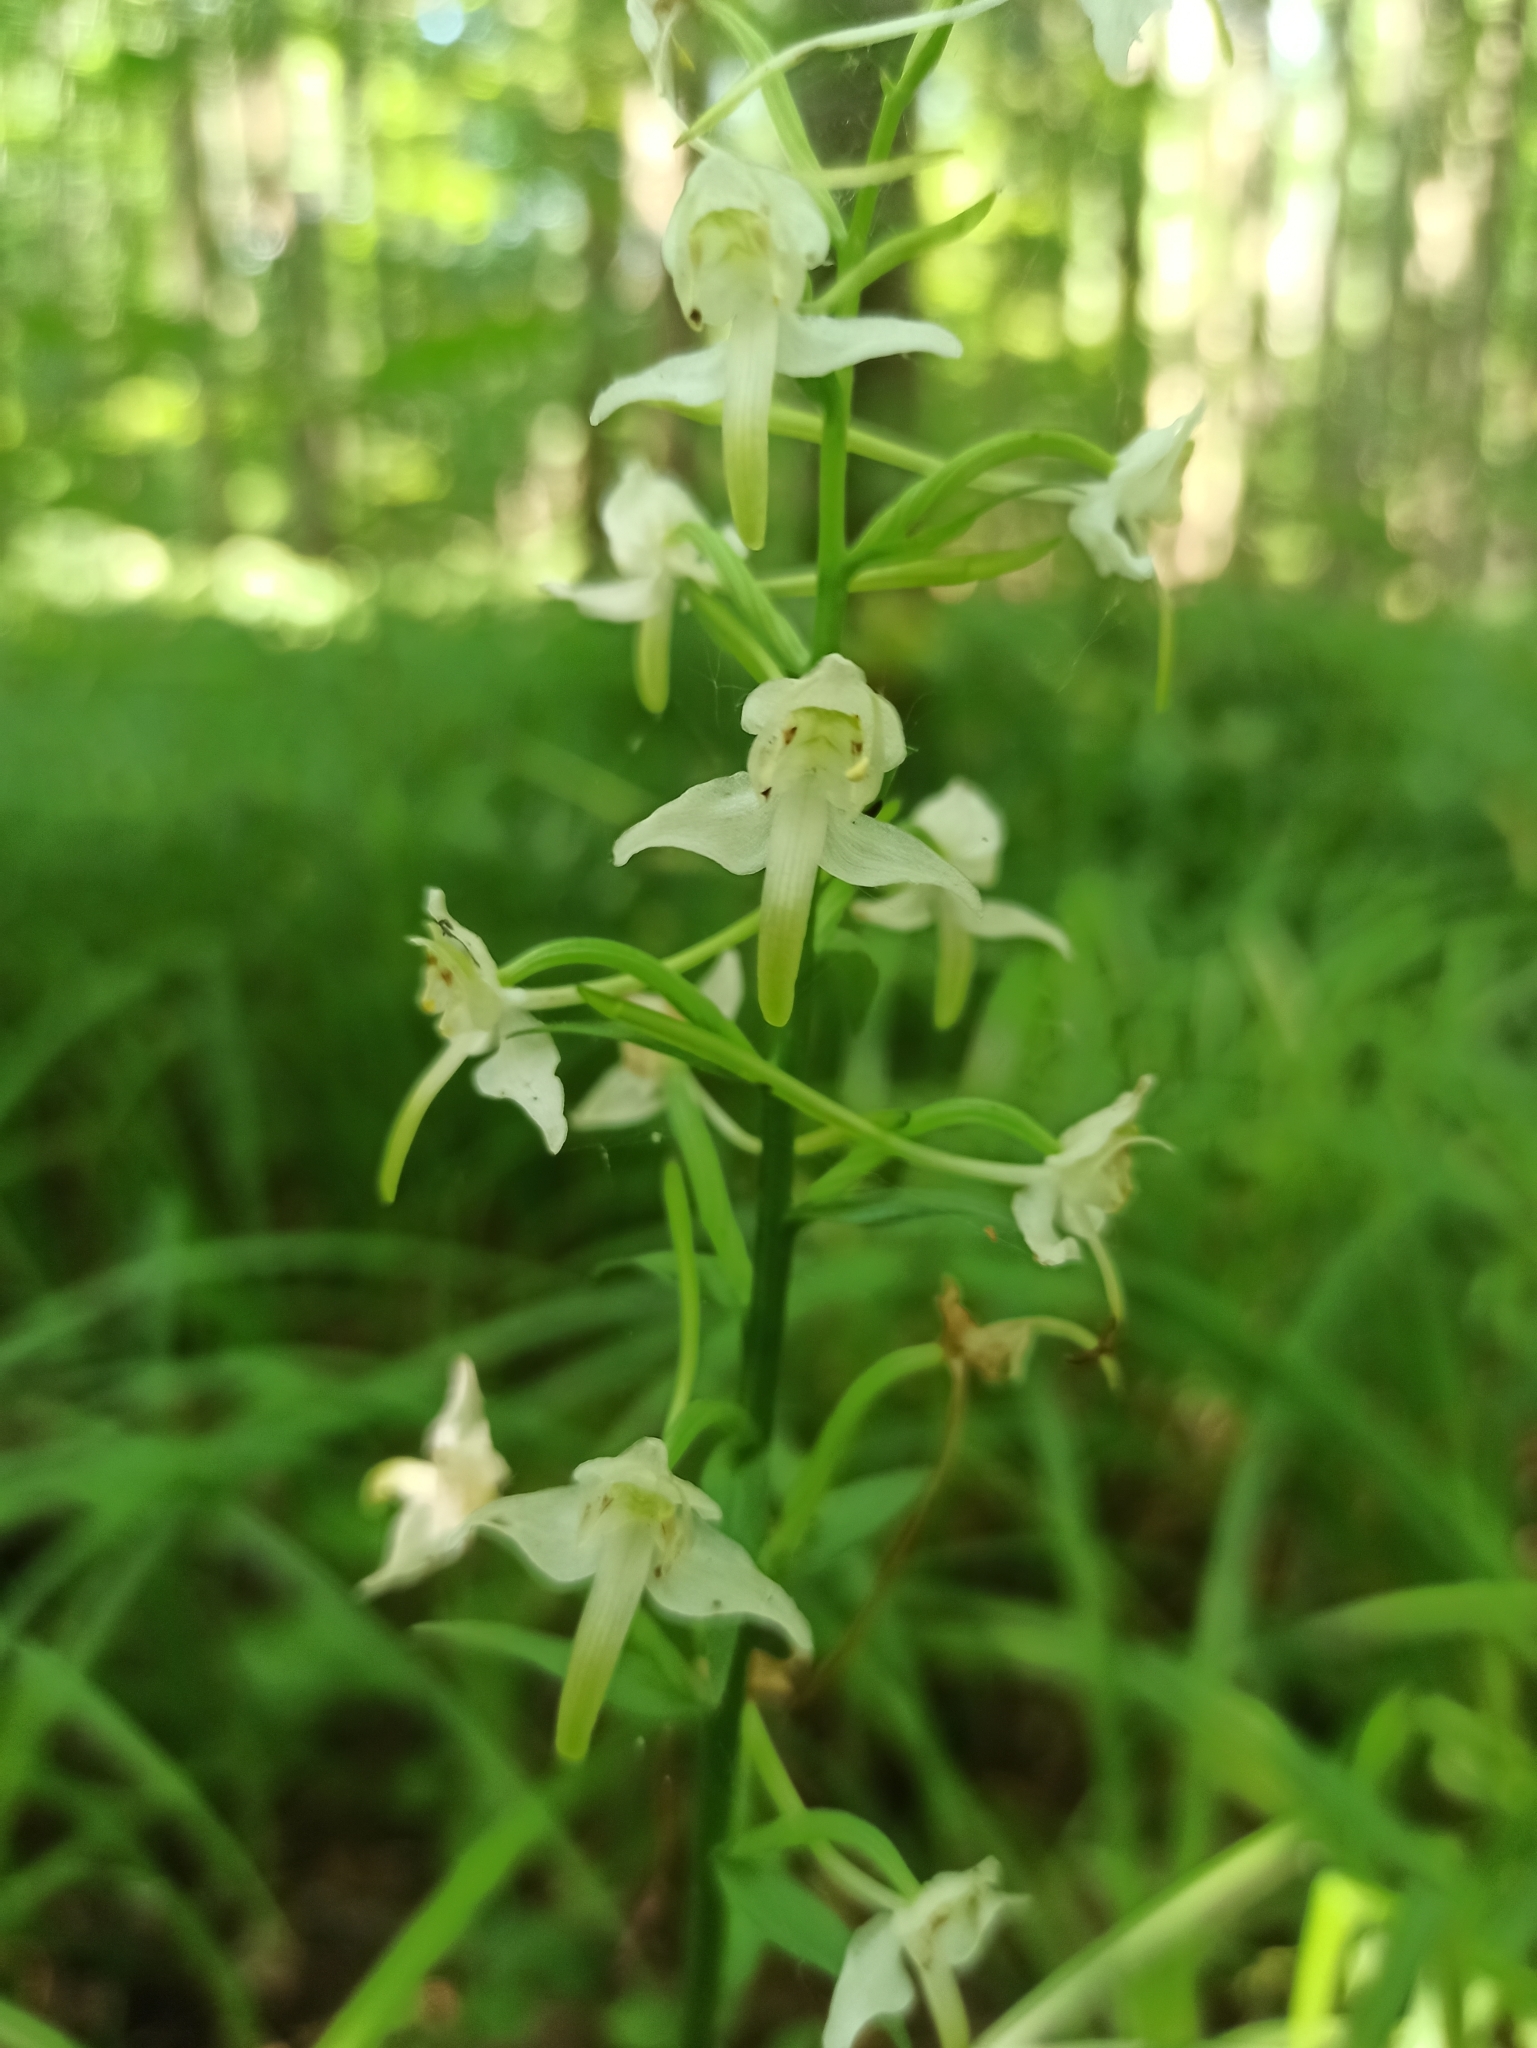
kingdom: Plantae
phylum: Tracheophyta
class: Liliopsida
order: Asparagales
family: Orchidaceae
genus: Platanthera
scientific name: Platanthera chlorantha
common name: Greater butterfly-orchid
